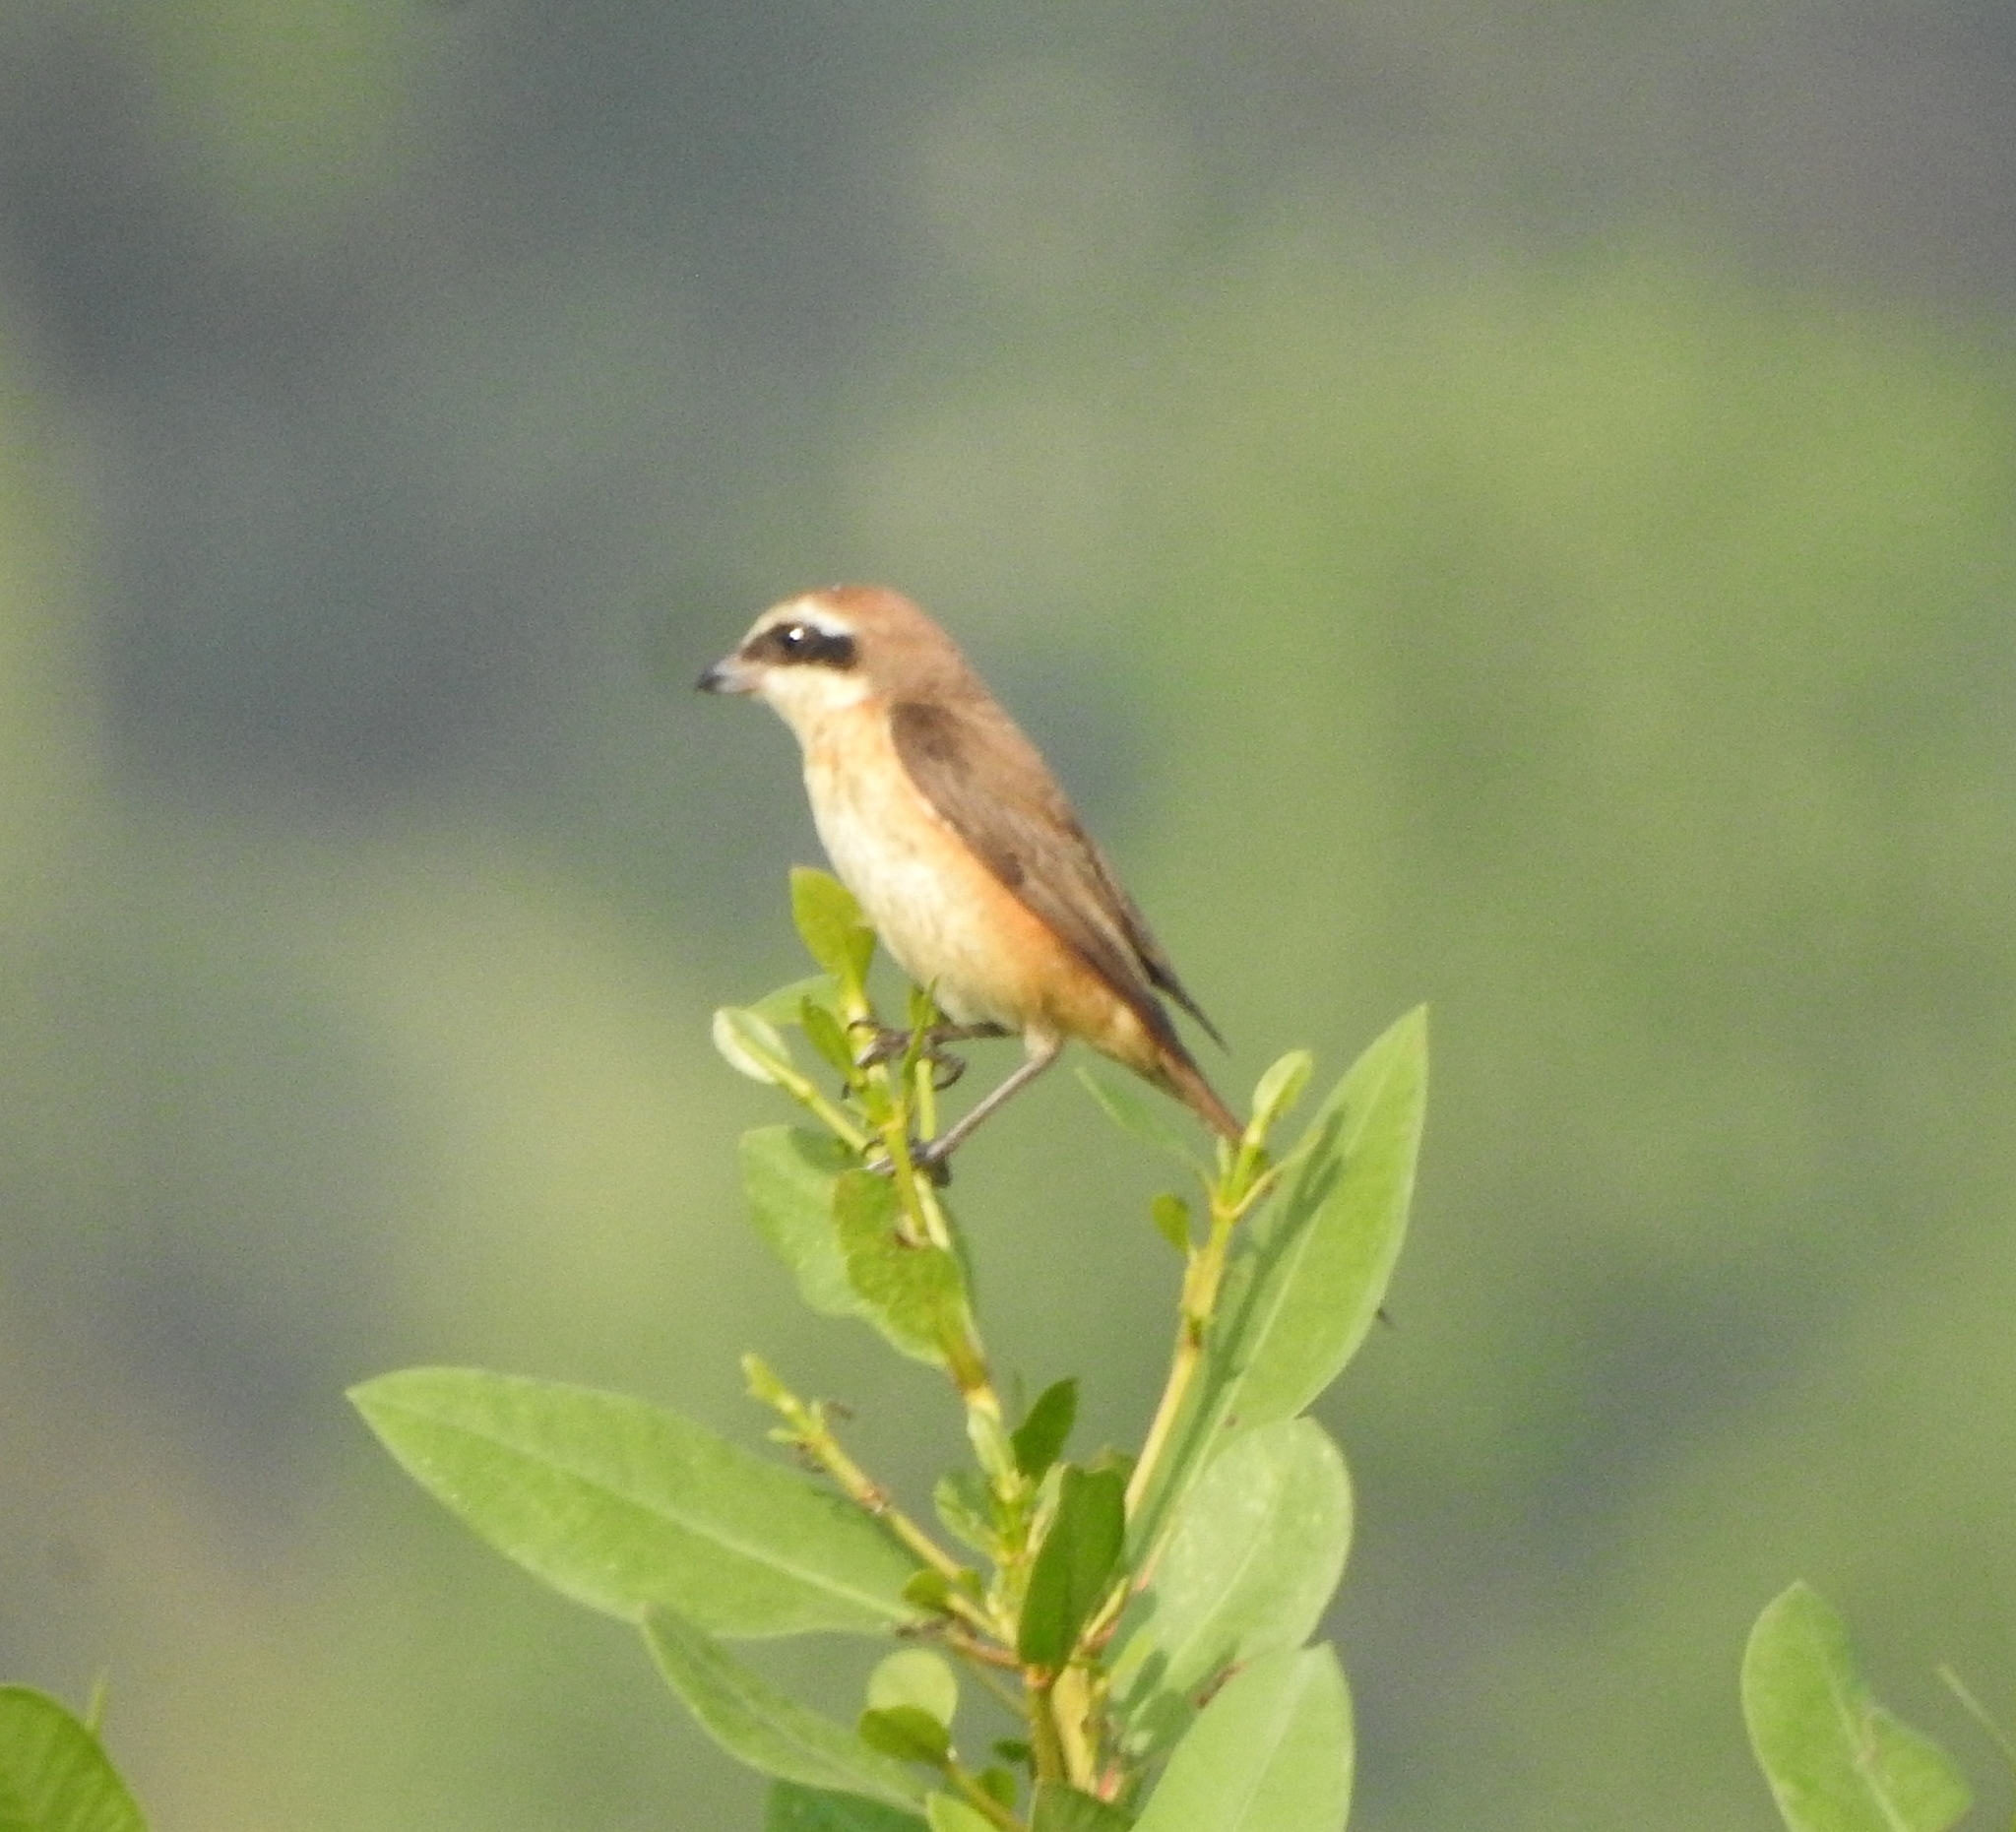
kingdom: Animalia
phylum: Chordata
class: Aves
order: Passeriformes
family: Laniidae
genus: Lanius
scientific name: Lanius cristatus
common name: Brown shrike
